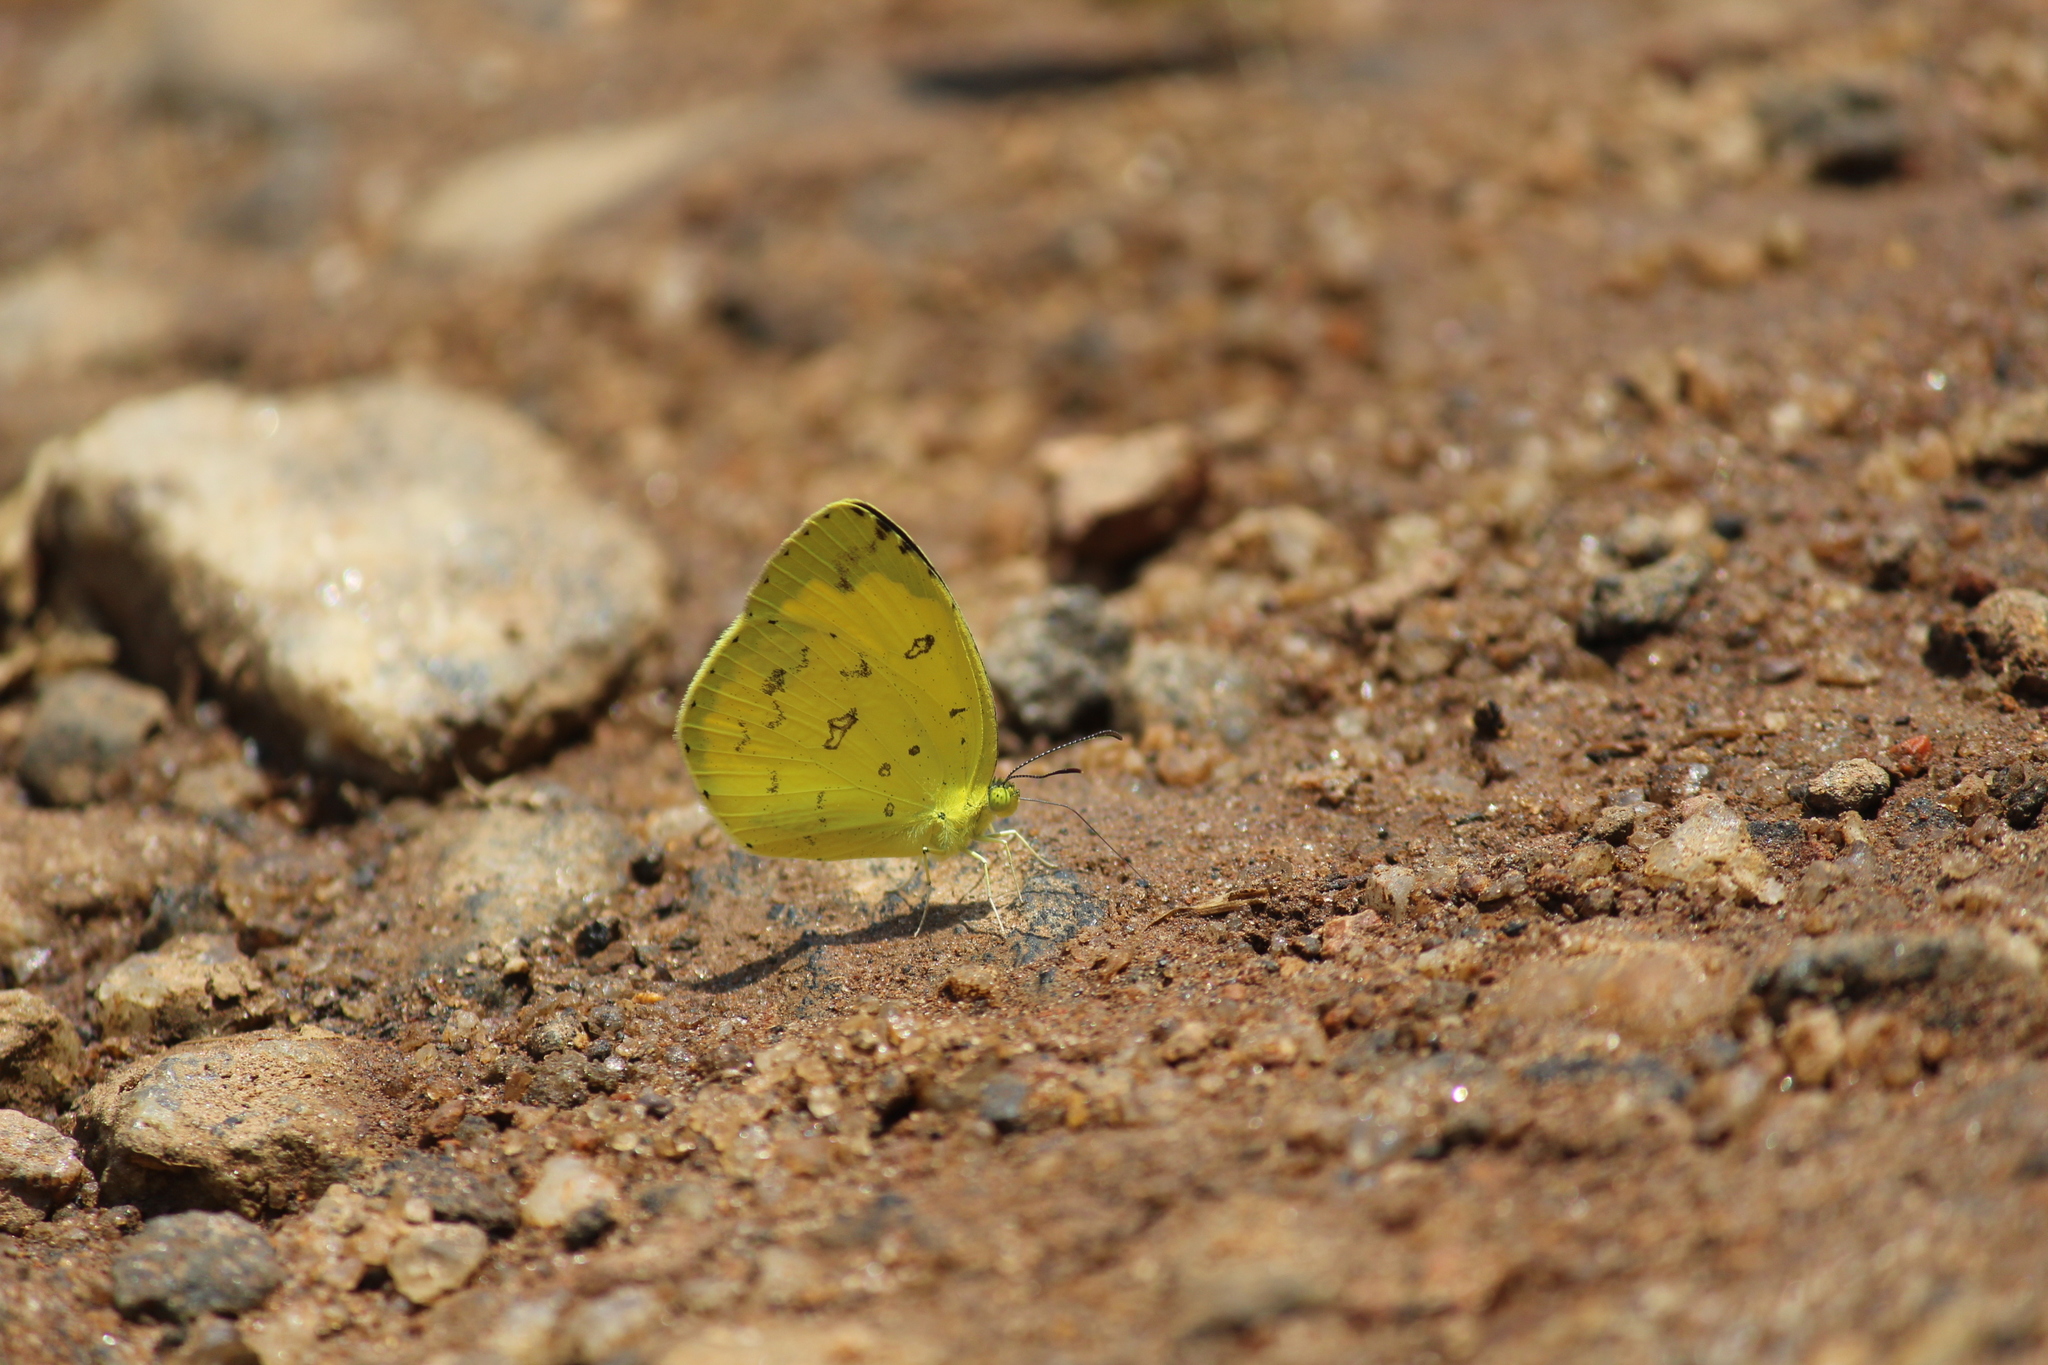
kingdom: Animalia
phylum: Arthropoda
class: Insecta
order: Lepidoptera
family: Pieridae
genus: Eurema
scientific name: Eurema hecabe
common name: Pale grass yellow
